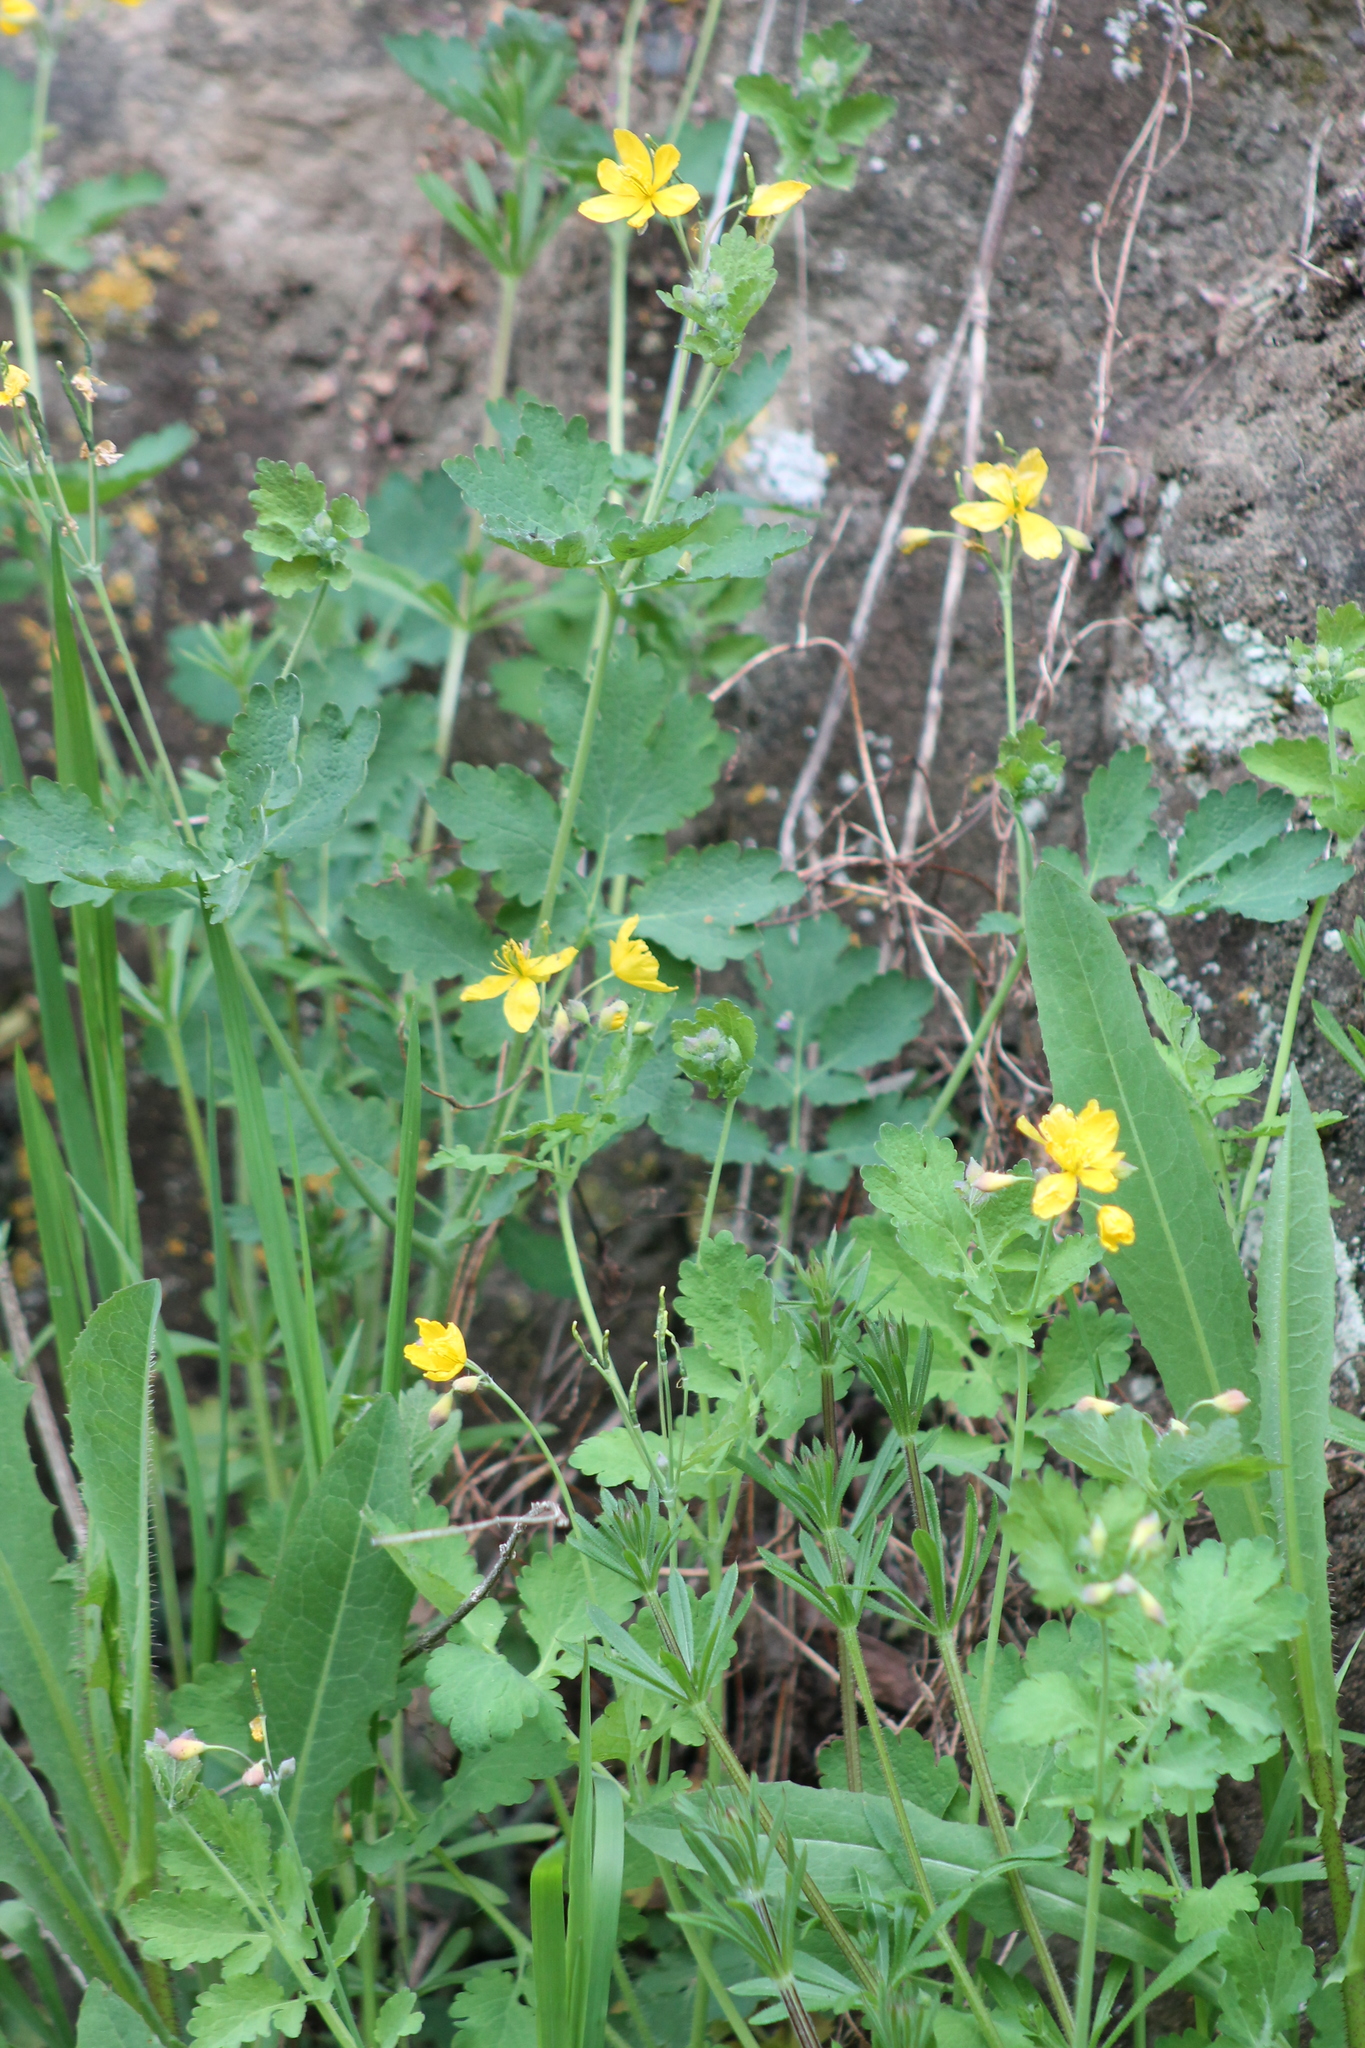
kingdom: Plantae
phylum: Tracheophyta
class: Magnoliopsida
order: Ranunculales
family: Papaveraceae
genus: Chelidonium
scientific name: Chelidonium majus
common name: Greater celandine
